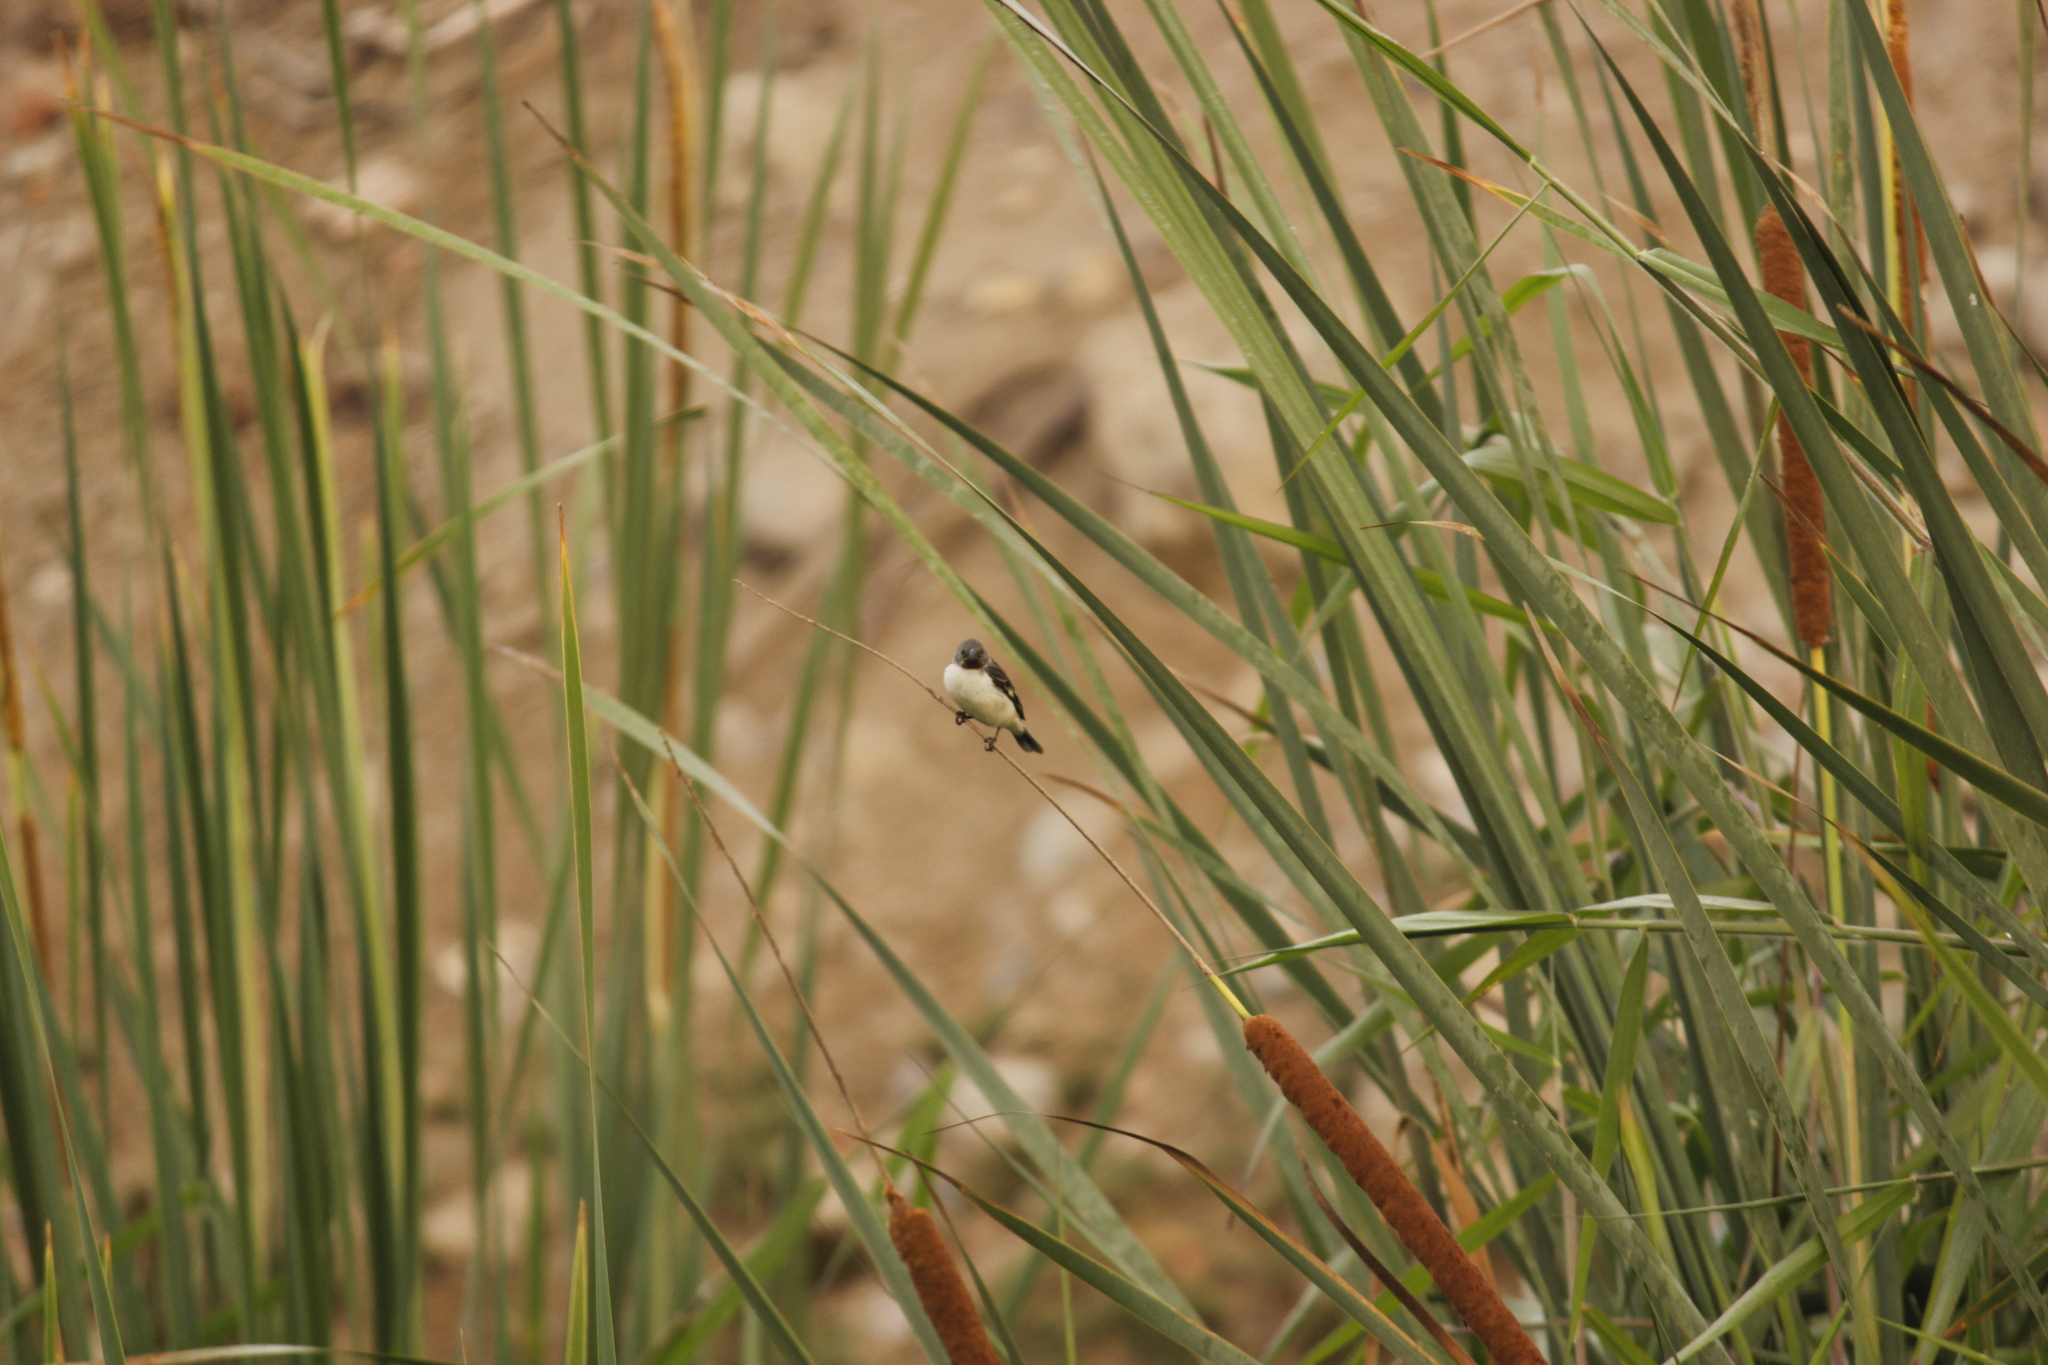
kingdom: Animalia
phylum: Chordata
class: Aves
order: Passeriformes
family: Thraupidae
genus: Sporophila
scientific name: Sporophila telasco
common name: Chestnut-throated seedeater
